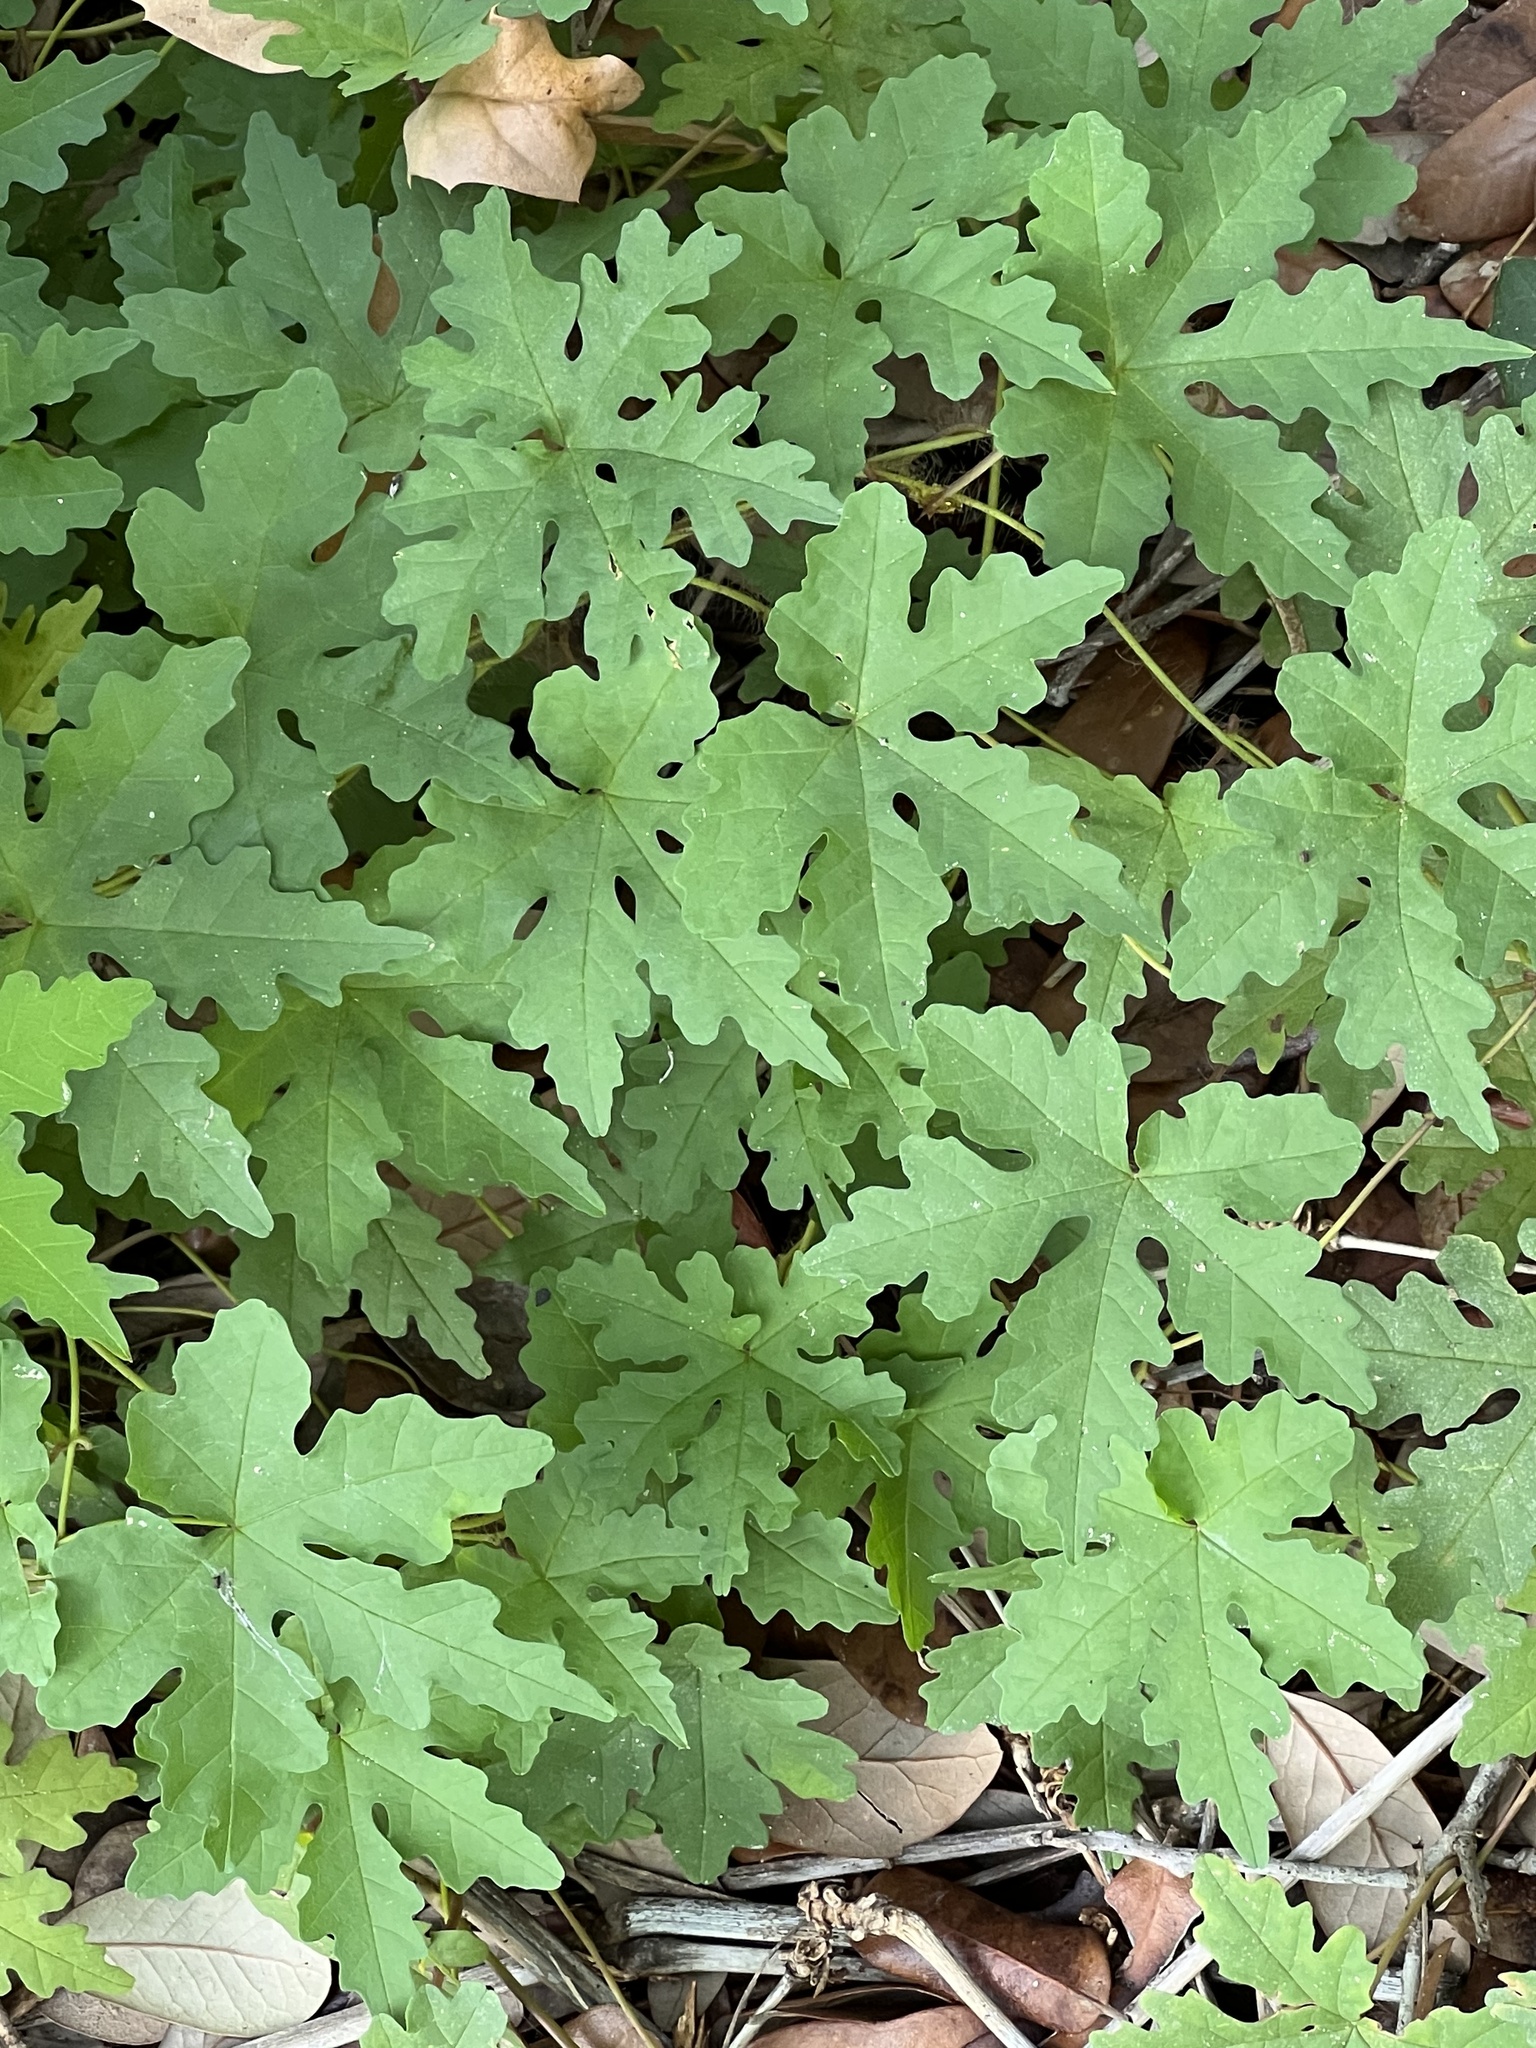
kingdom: Plantae
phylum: Tracheophyta
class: Magnoliopsida
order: Solanales
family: Convolvulaceae
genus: Distimake
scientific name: Distimake dissectus
